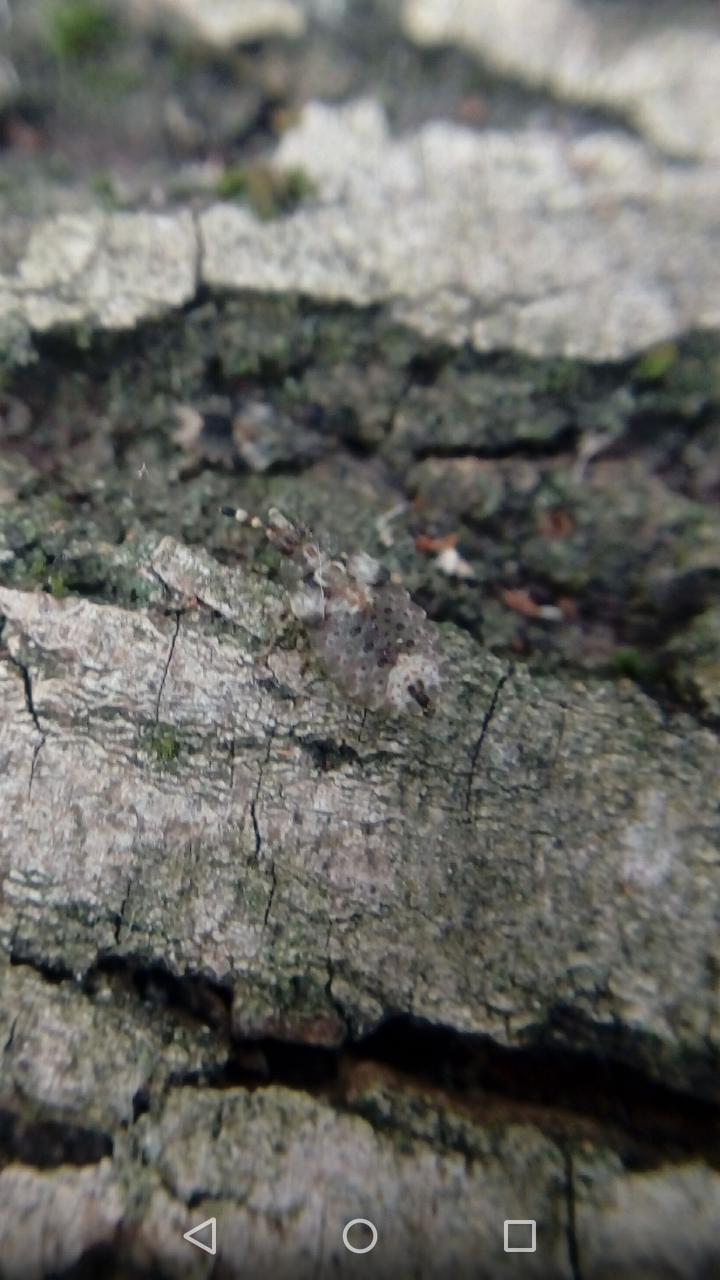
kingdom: Animalia
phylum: Arthropoda
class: Insecta
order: Hemiptera
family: Aradidae
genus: Aradus
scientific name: Aradus
